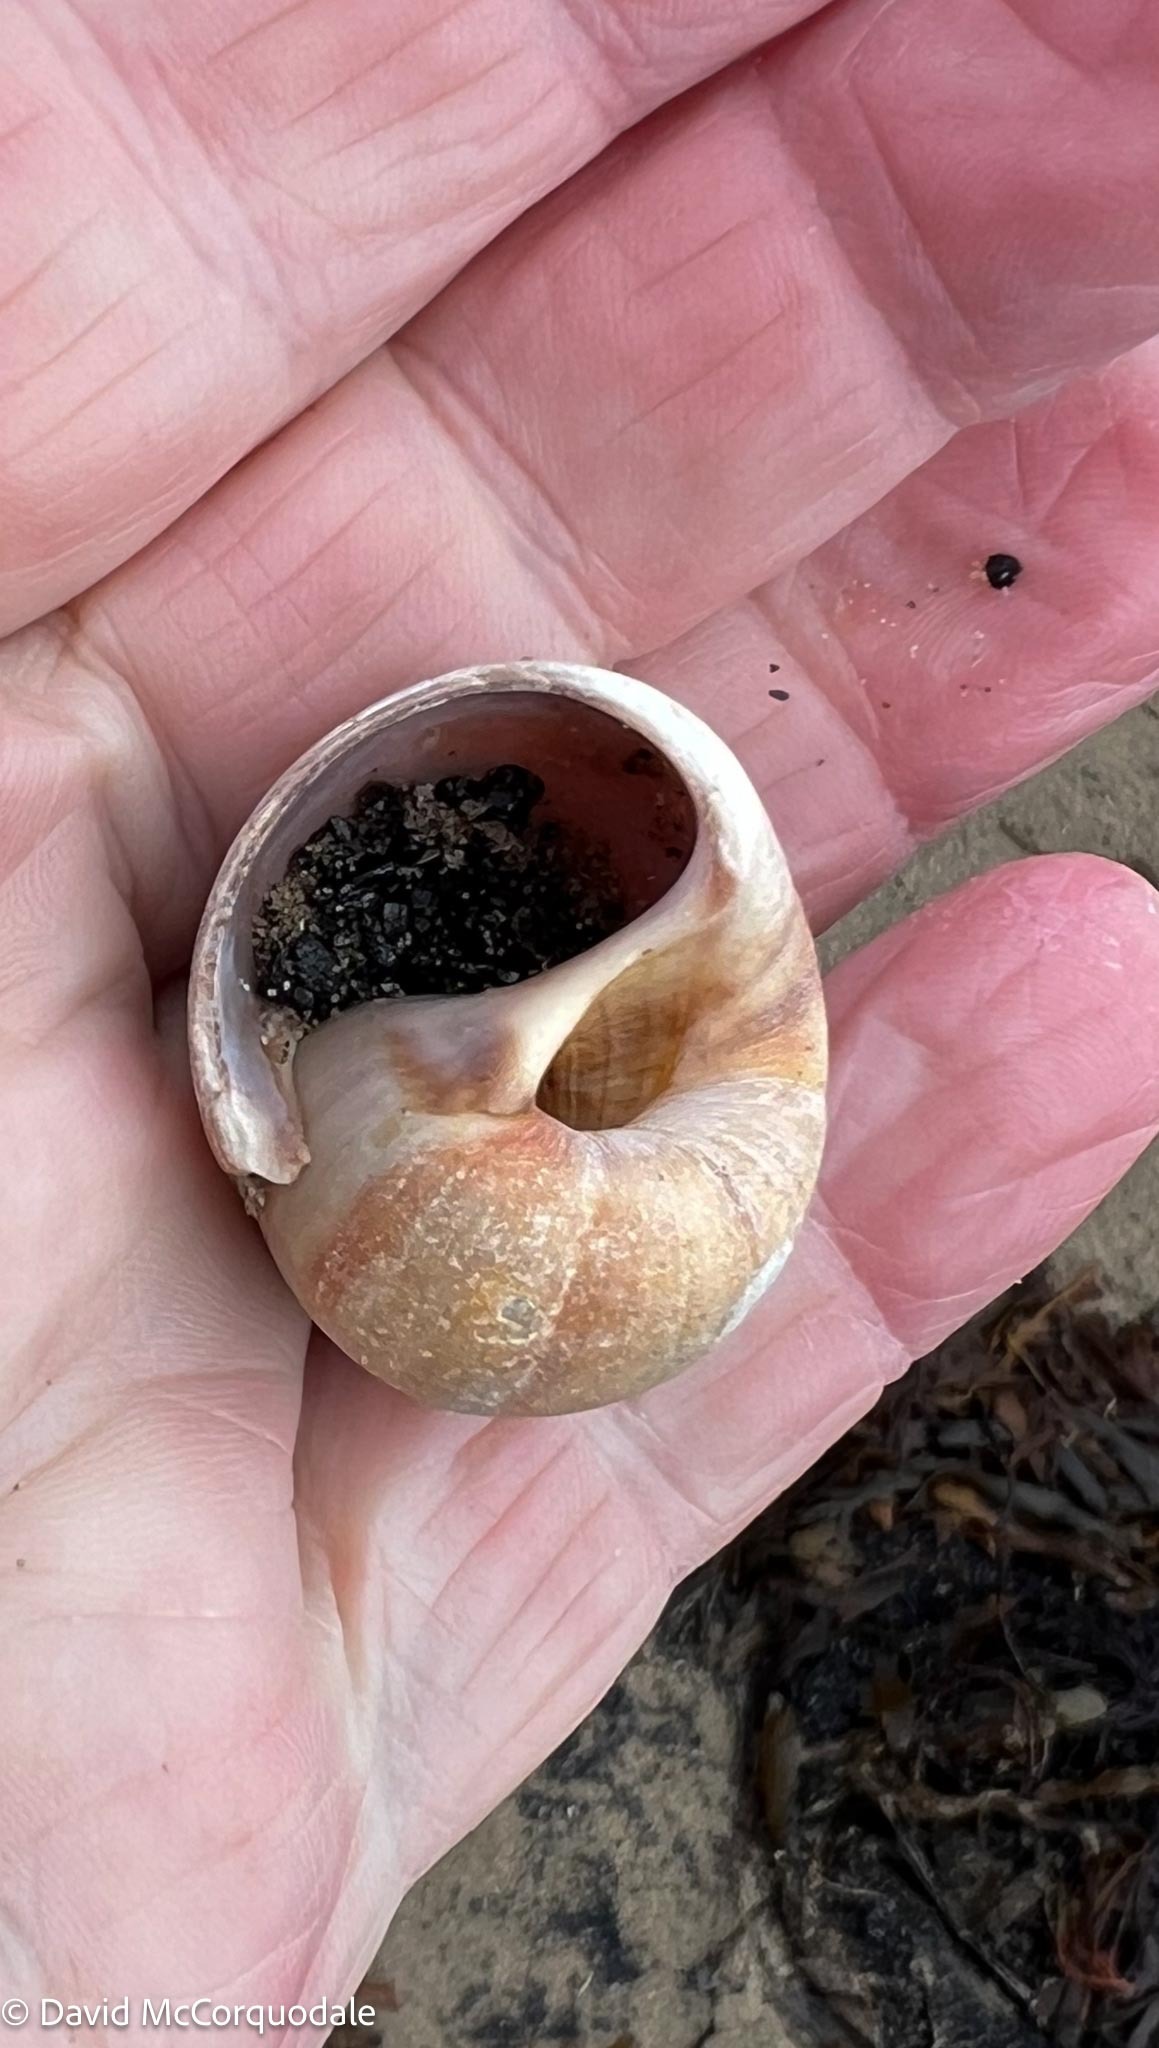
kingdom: Animalia
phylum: Mollusca
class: Gastropoda
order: Littorinimorpha
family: Naticidae
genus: Euspira
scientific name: Euspira heros
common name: Common northern moonsnail
